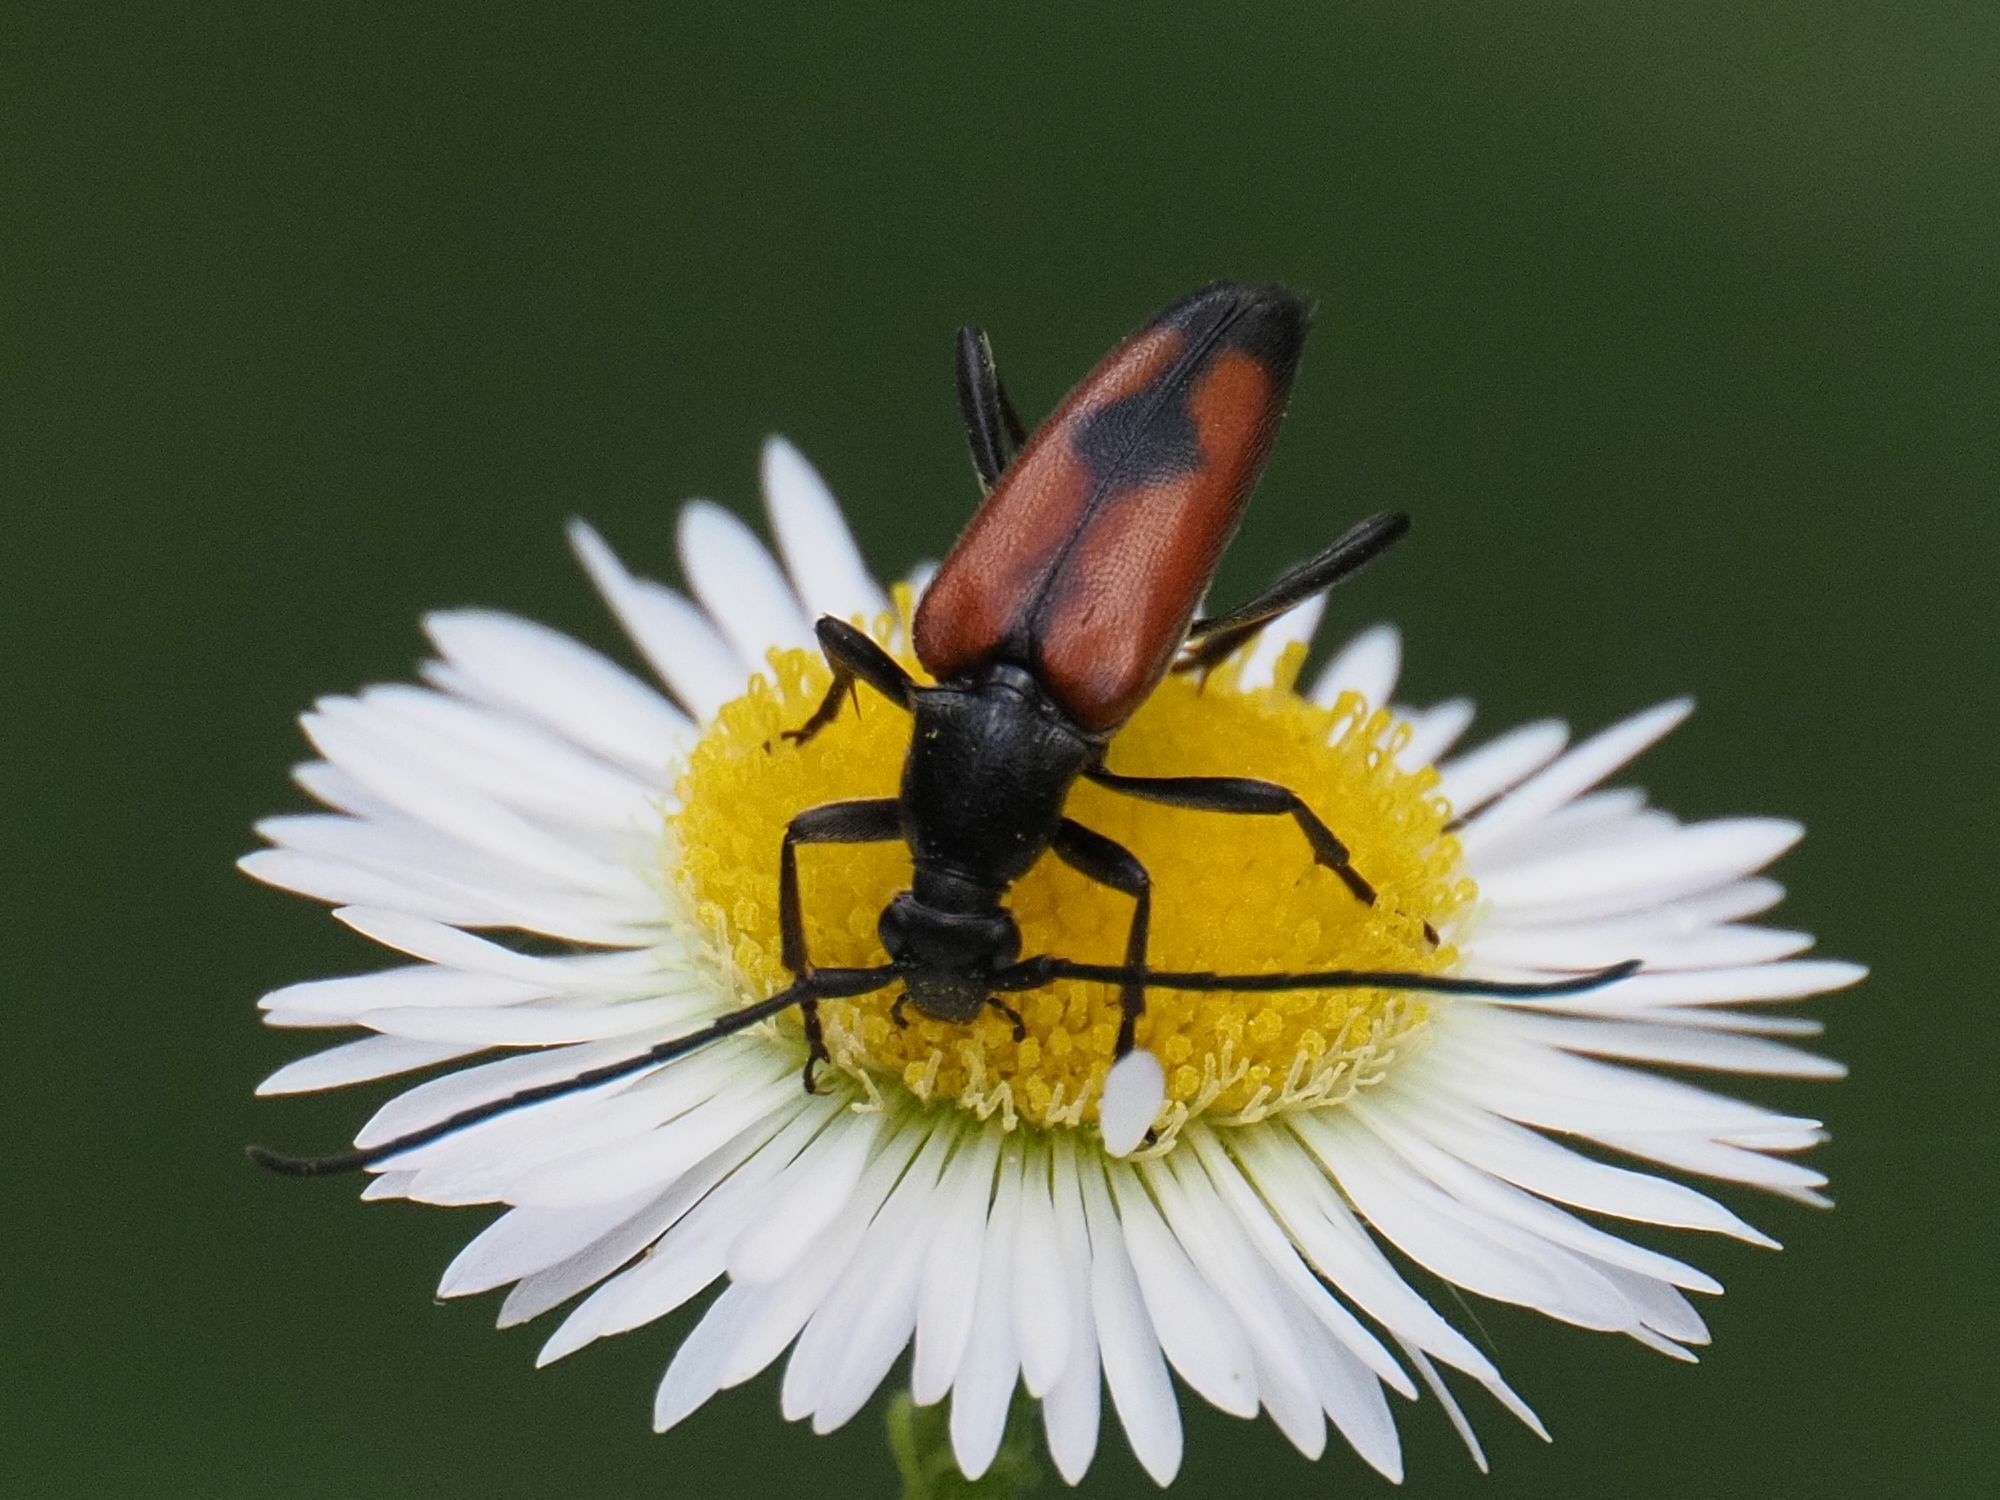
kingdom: Animalia
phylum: Arthropoda
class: Insecta
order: Coleoptera
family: Cerambycidae
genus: Stenurella
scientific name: Stenurella bifasciata
